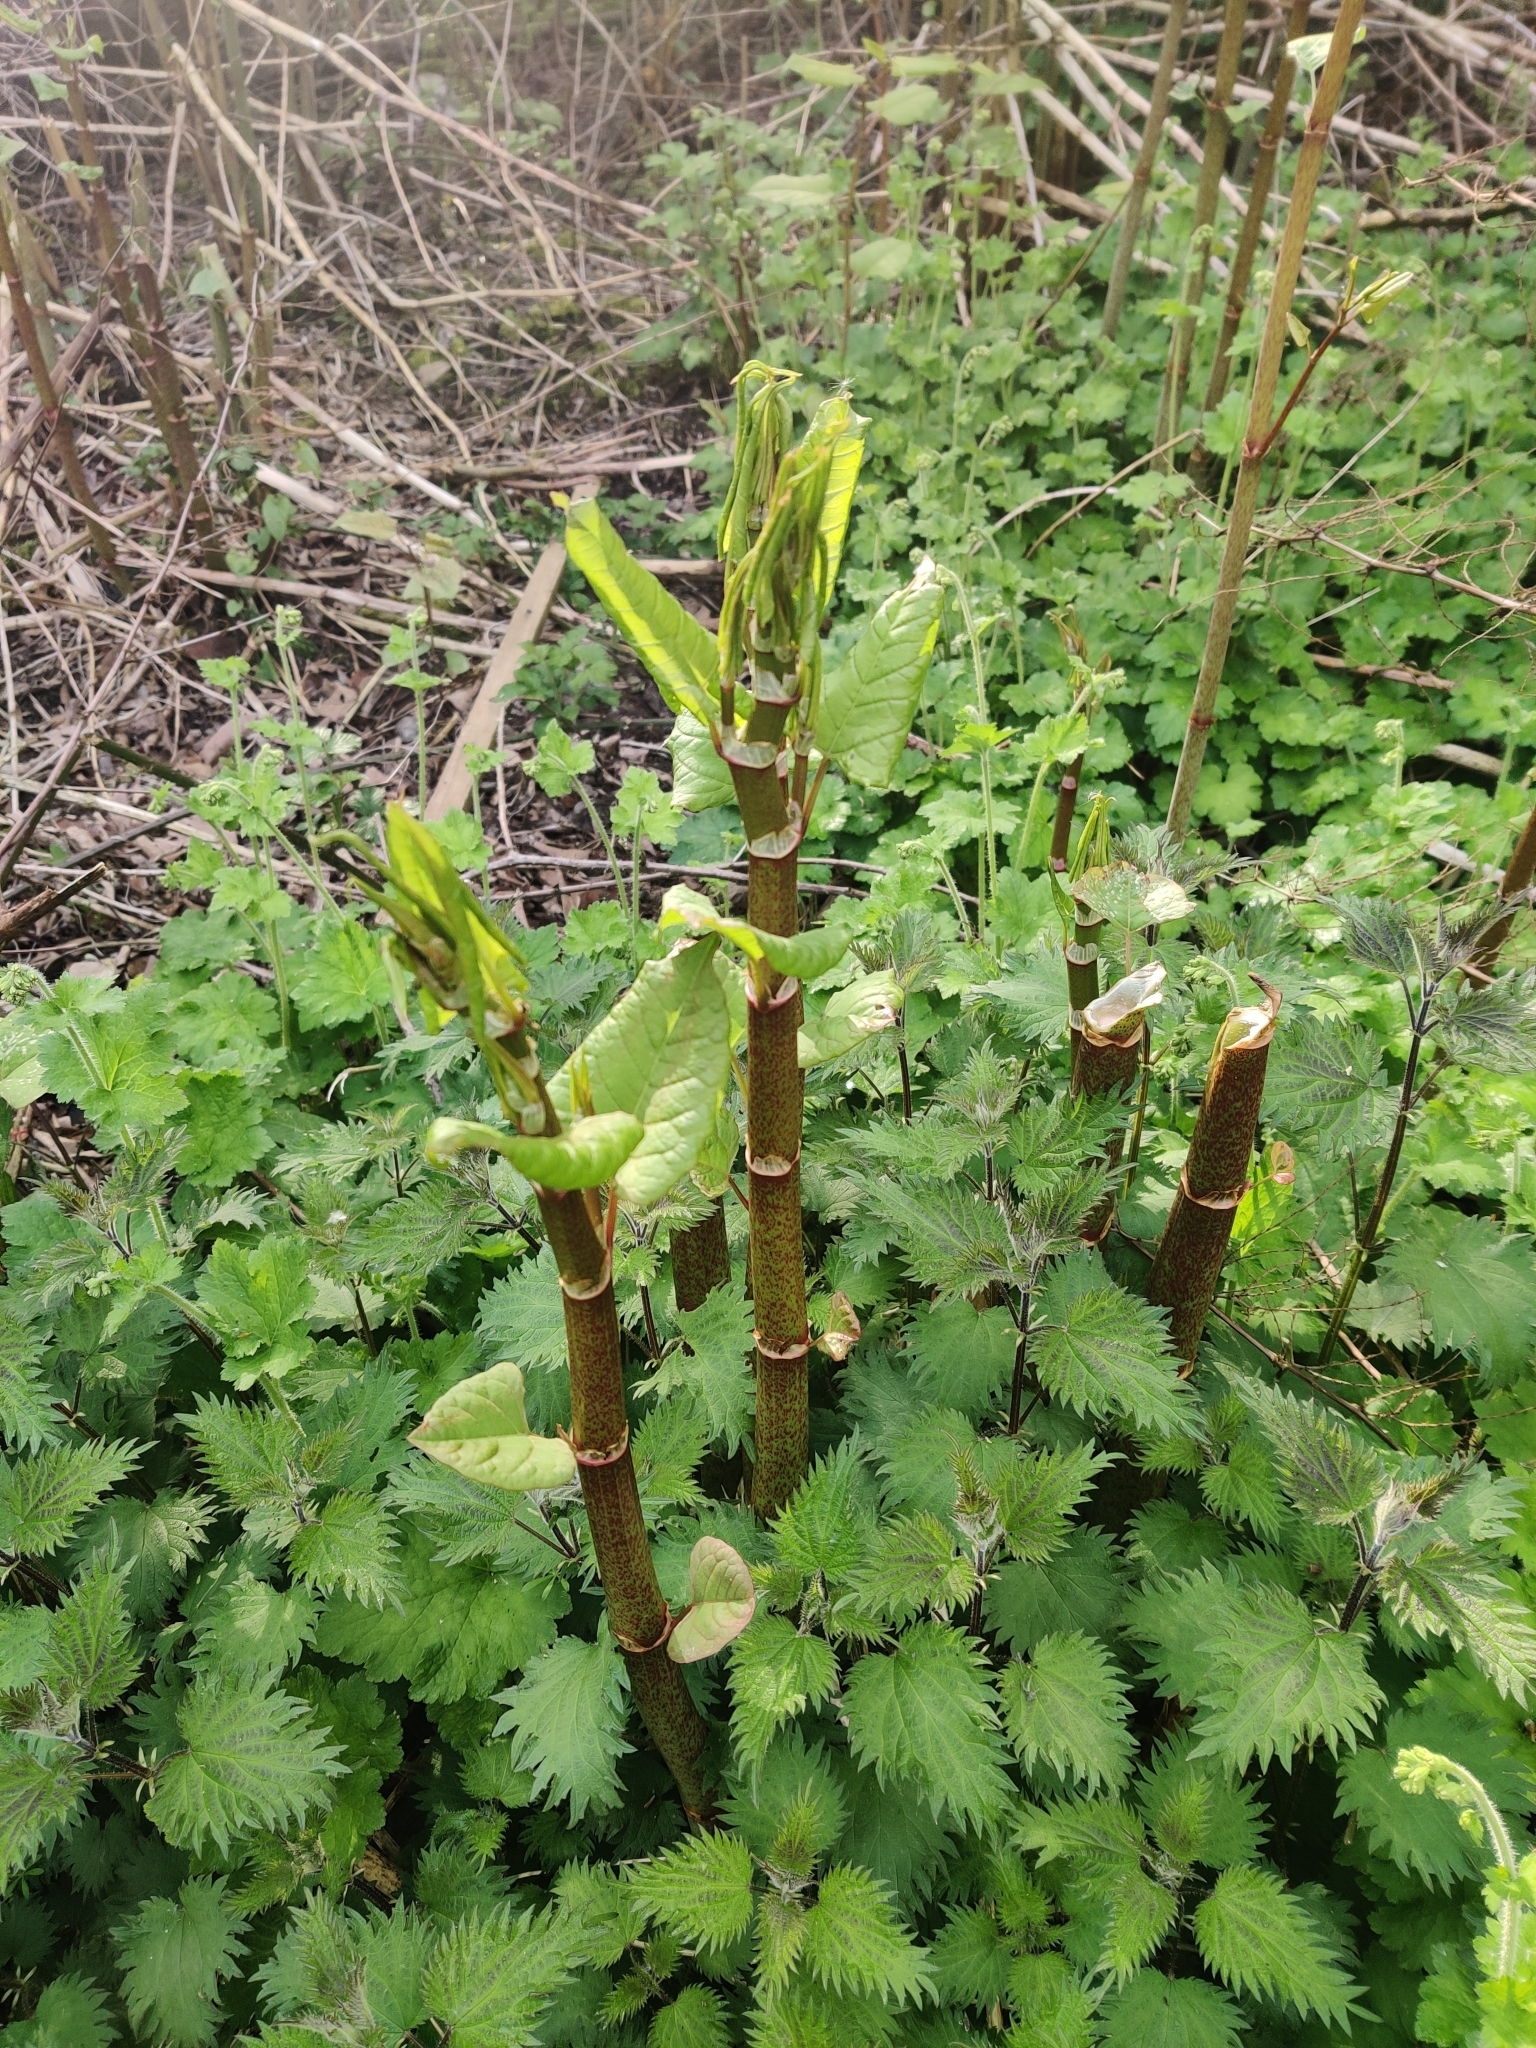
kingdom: Plantae
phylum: Tracheophyta
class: Magnoliopsida
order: Caryophyllales
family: Polygonaceae
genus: Reynoutria
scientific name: Reynoutria japonica
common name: Japanese knotweed
